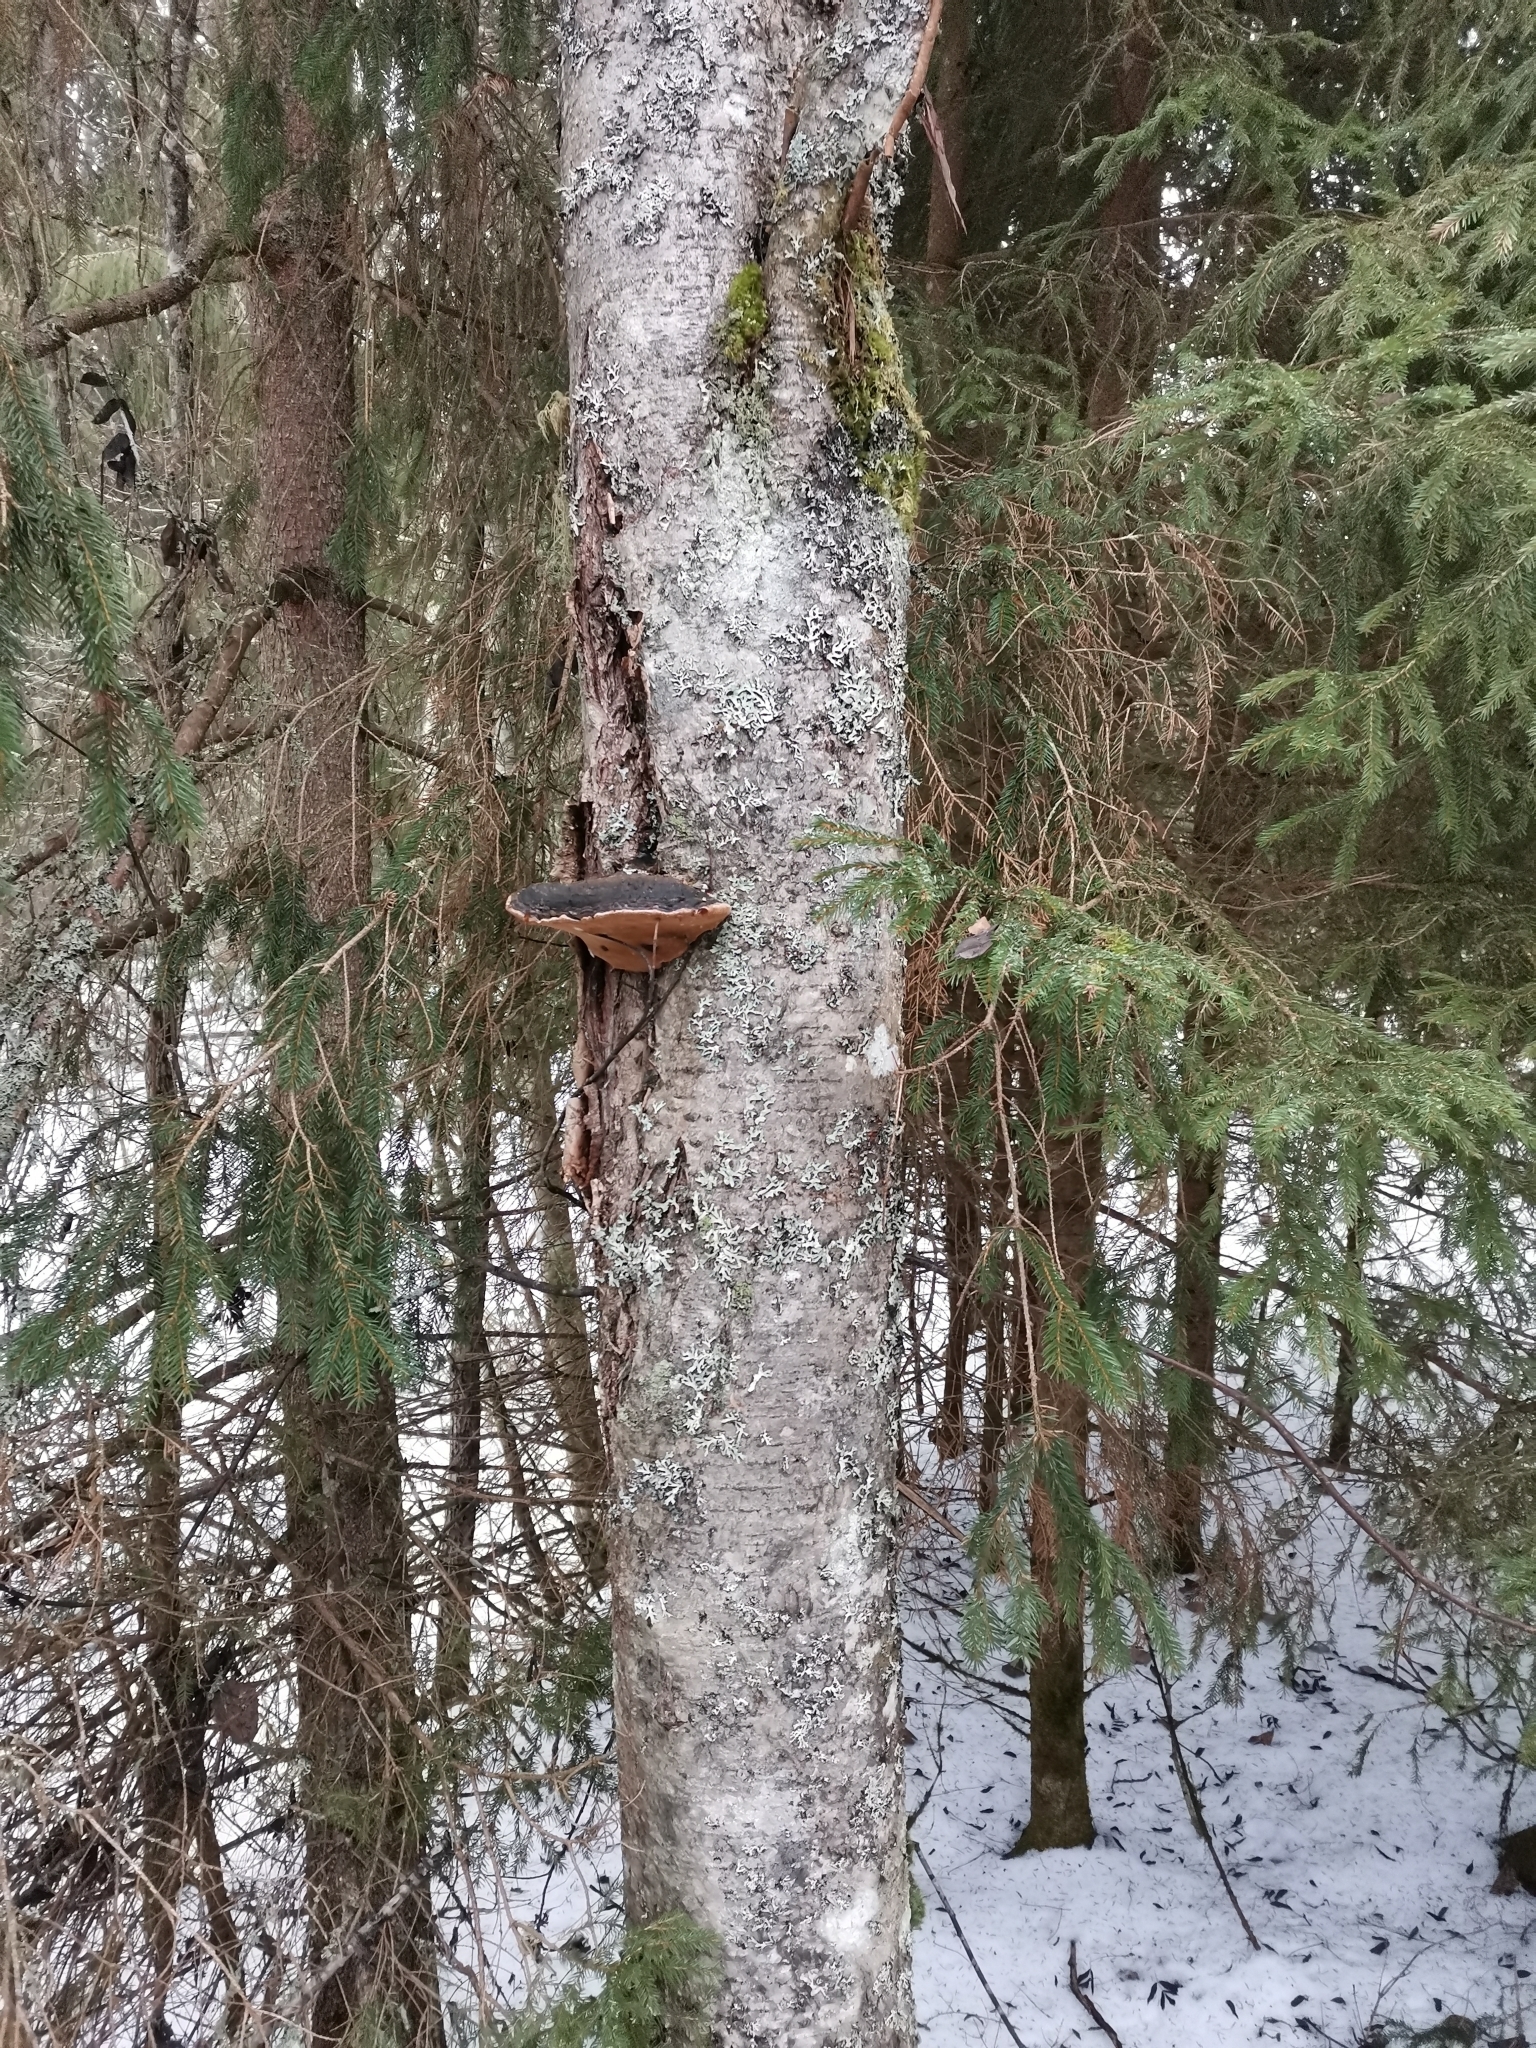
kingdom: Fungi
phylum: Basidiomycota
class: Agaricomycetes
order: Hymenochaetales
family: Hymenochaetaceae
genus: Phellinus
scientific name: Phellinus igniarius
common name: Willow bracket
